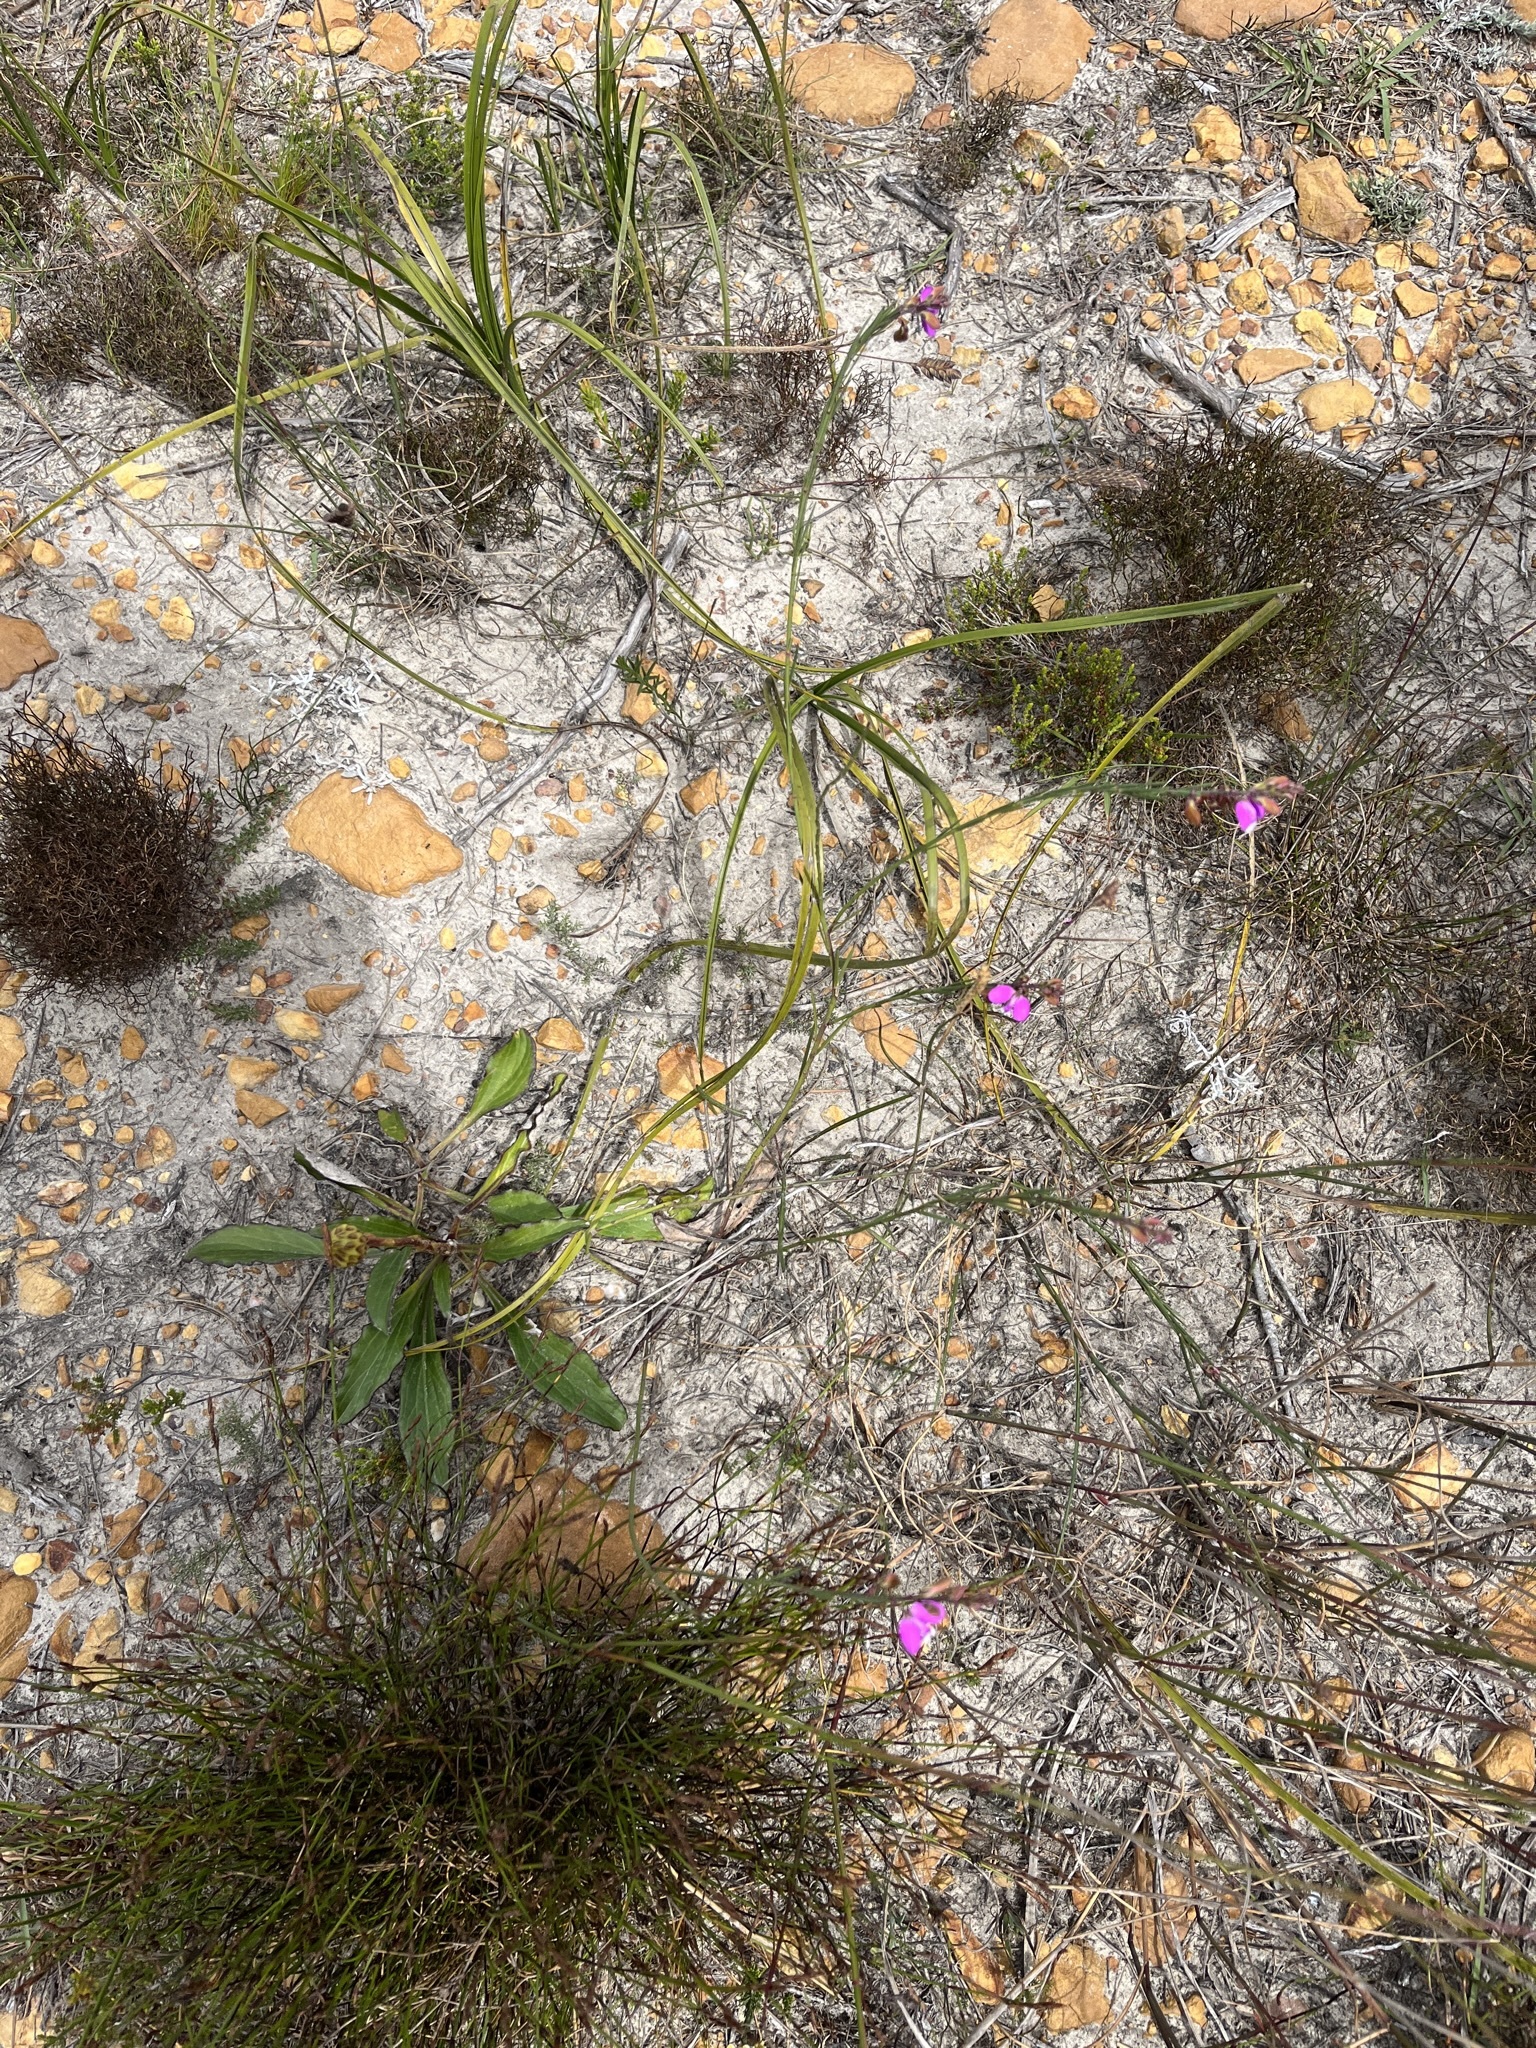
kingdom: Plantae
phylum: Tracheophyta
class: Magnoliopsida
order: Fabales
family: Polygalaceae
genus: Polygala
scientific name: Polygala garcini
